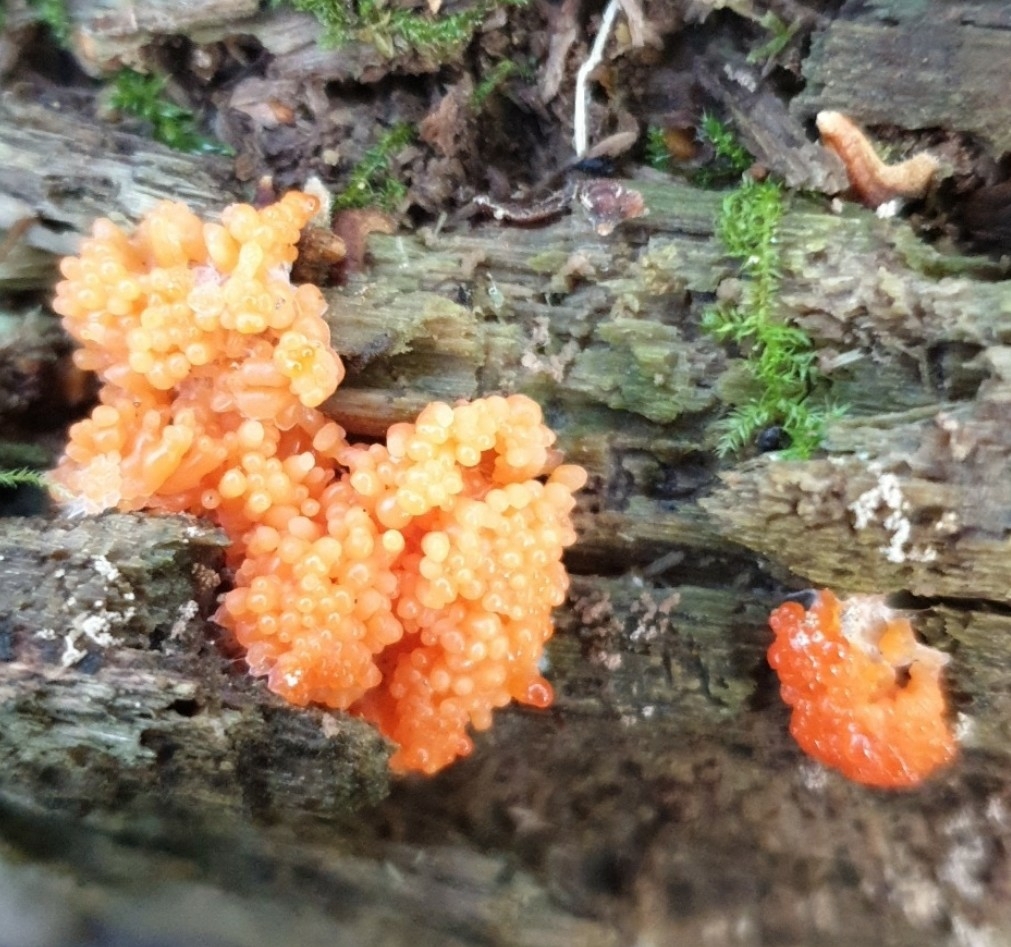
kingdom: Protozoa
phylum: Mycetozoa
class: Myxomycetes
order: Cribrariales
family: Tubiferaceae
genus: Tubifera
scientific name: Tubifera ferruginosa
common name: Red raspberry slime mold
